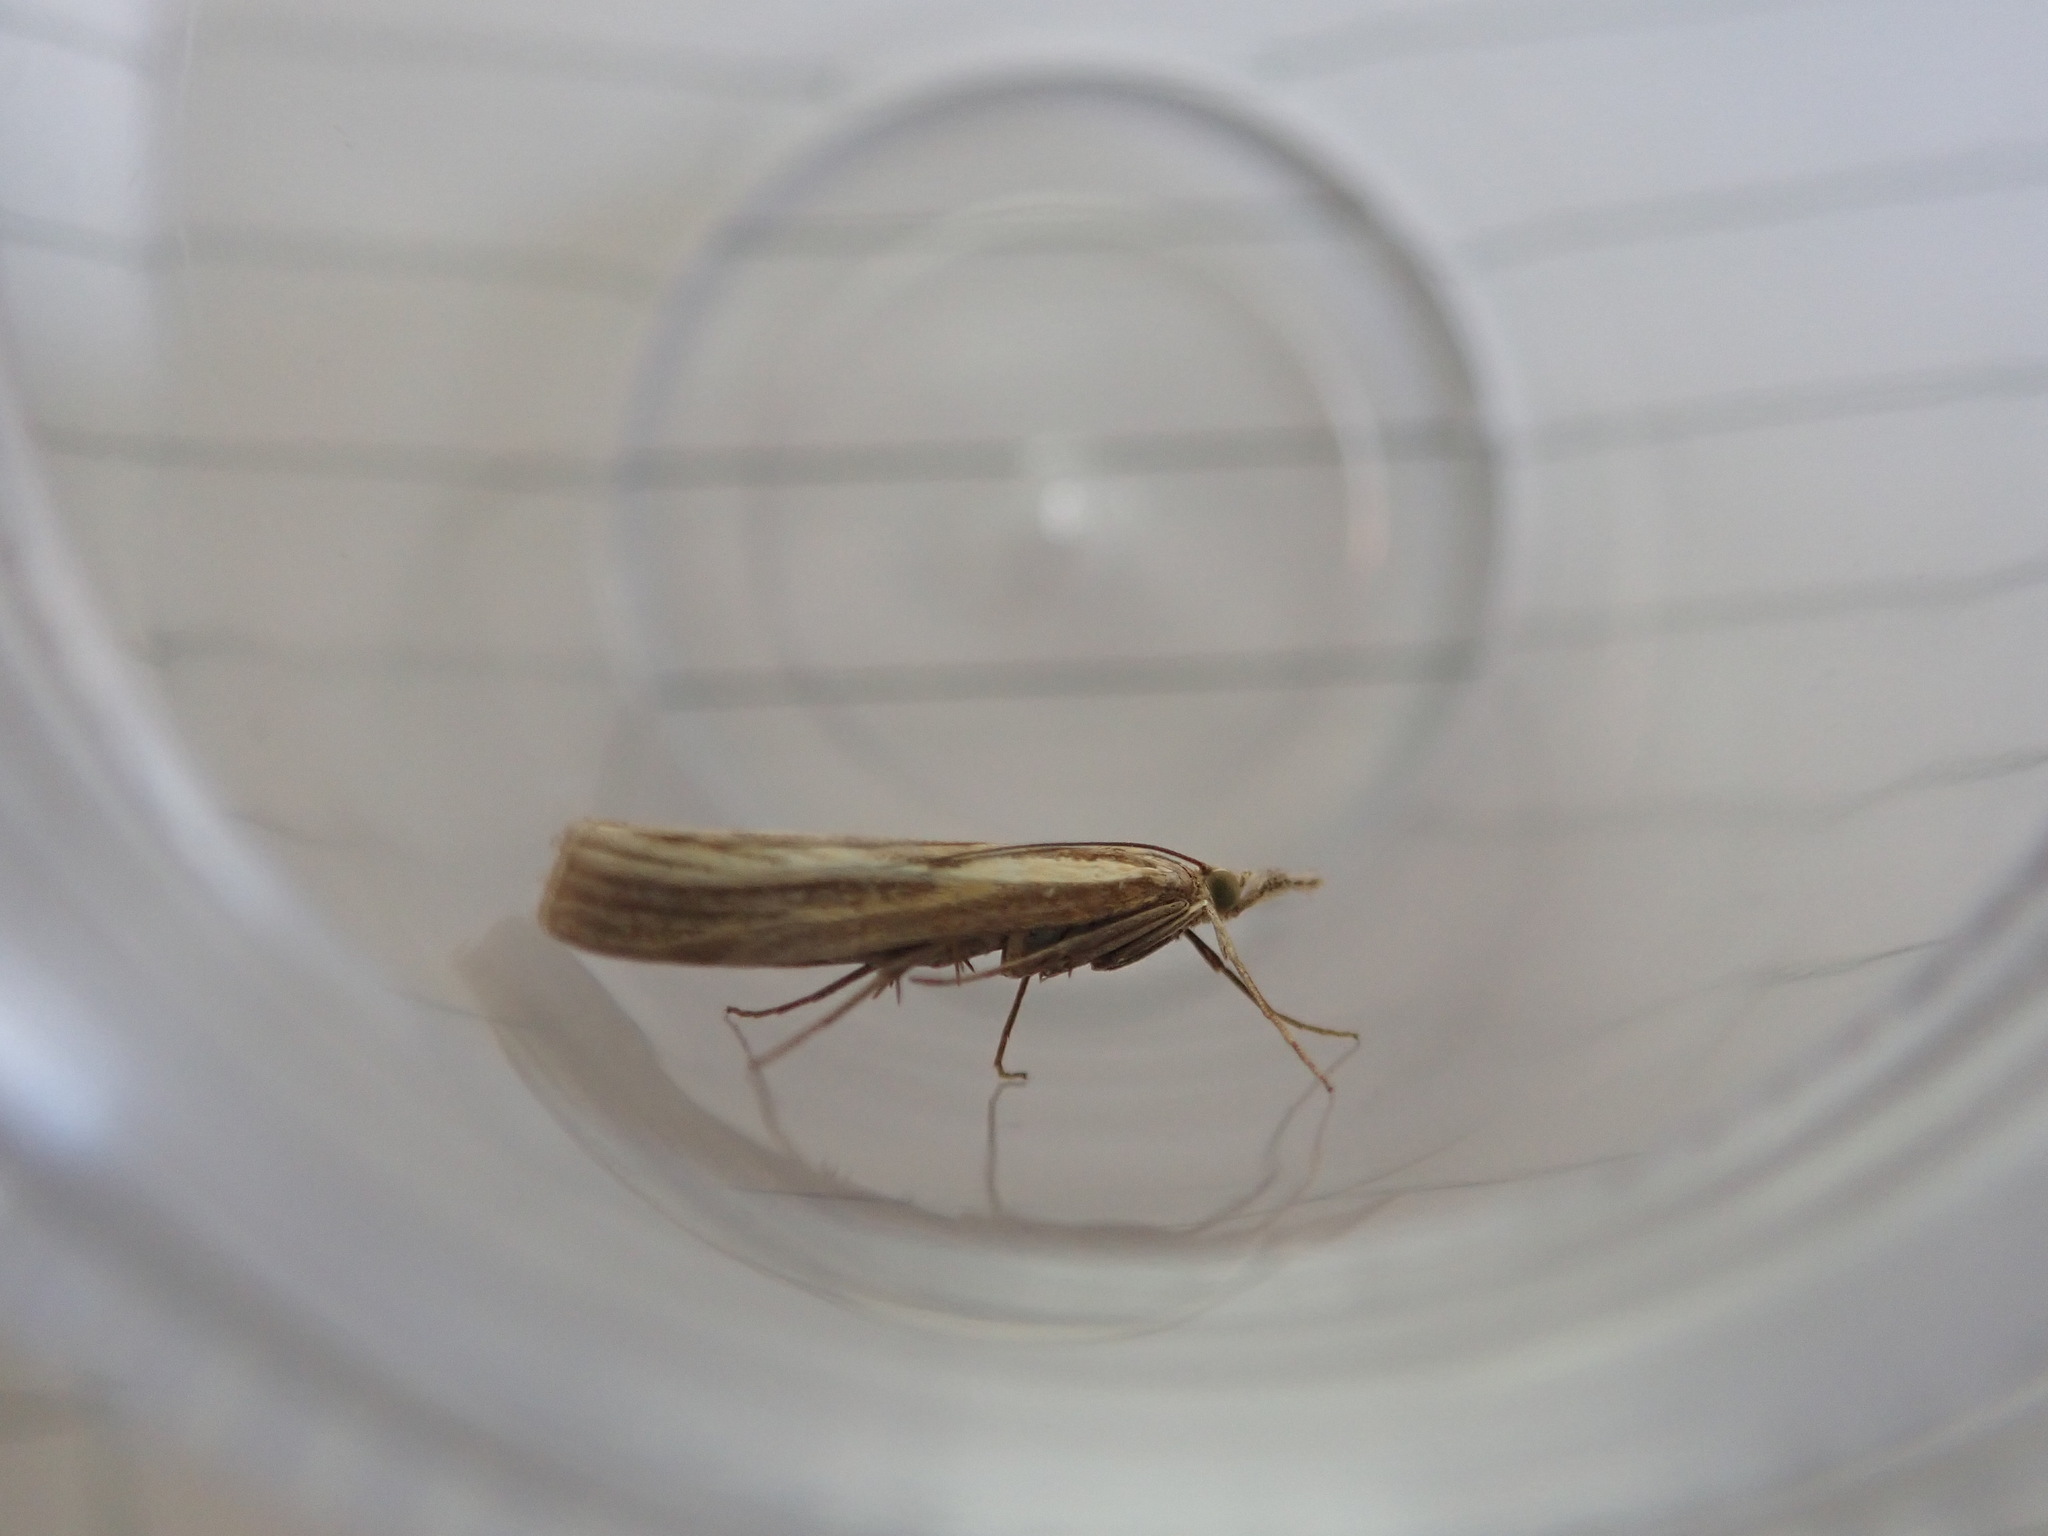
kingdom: Animalia
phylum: Arthropoda
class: Insecta
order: Lepidoptera
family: Crambidae
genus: Agriphila
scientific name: Agriphila tristellus
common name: Common grass-veneer
